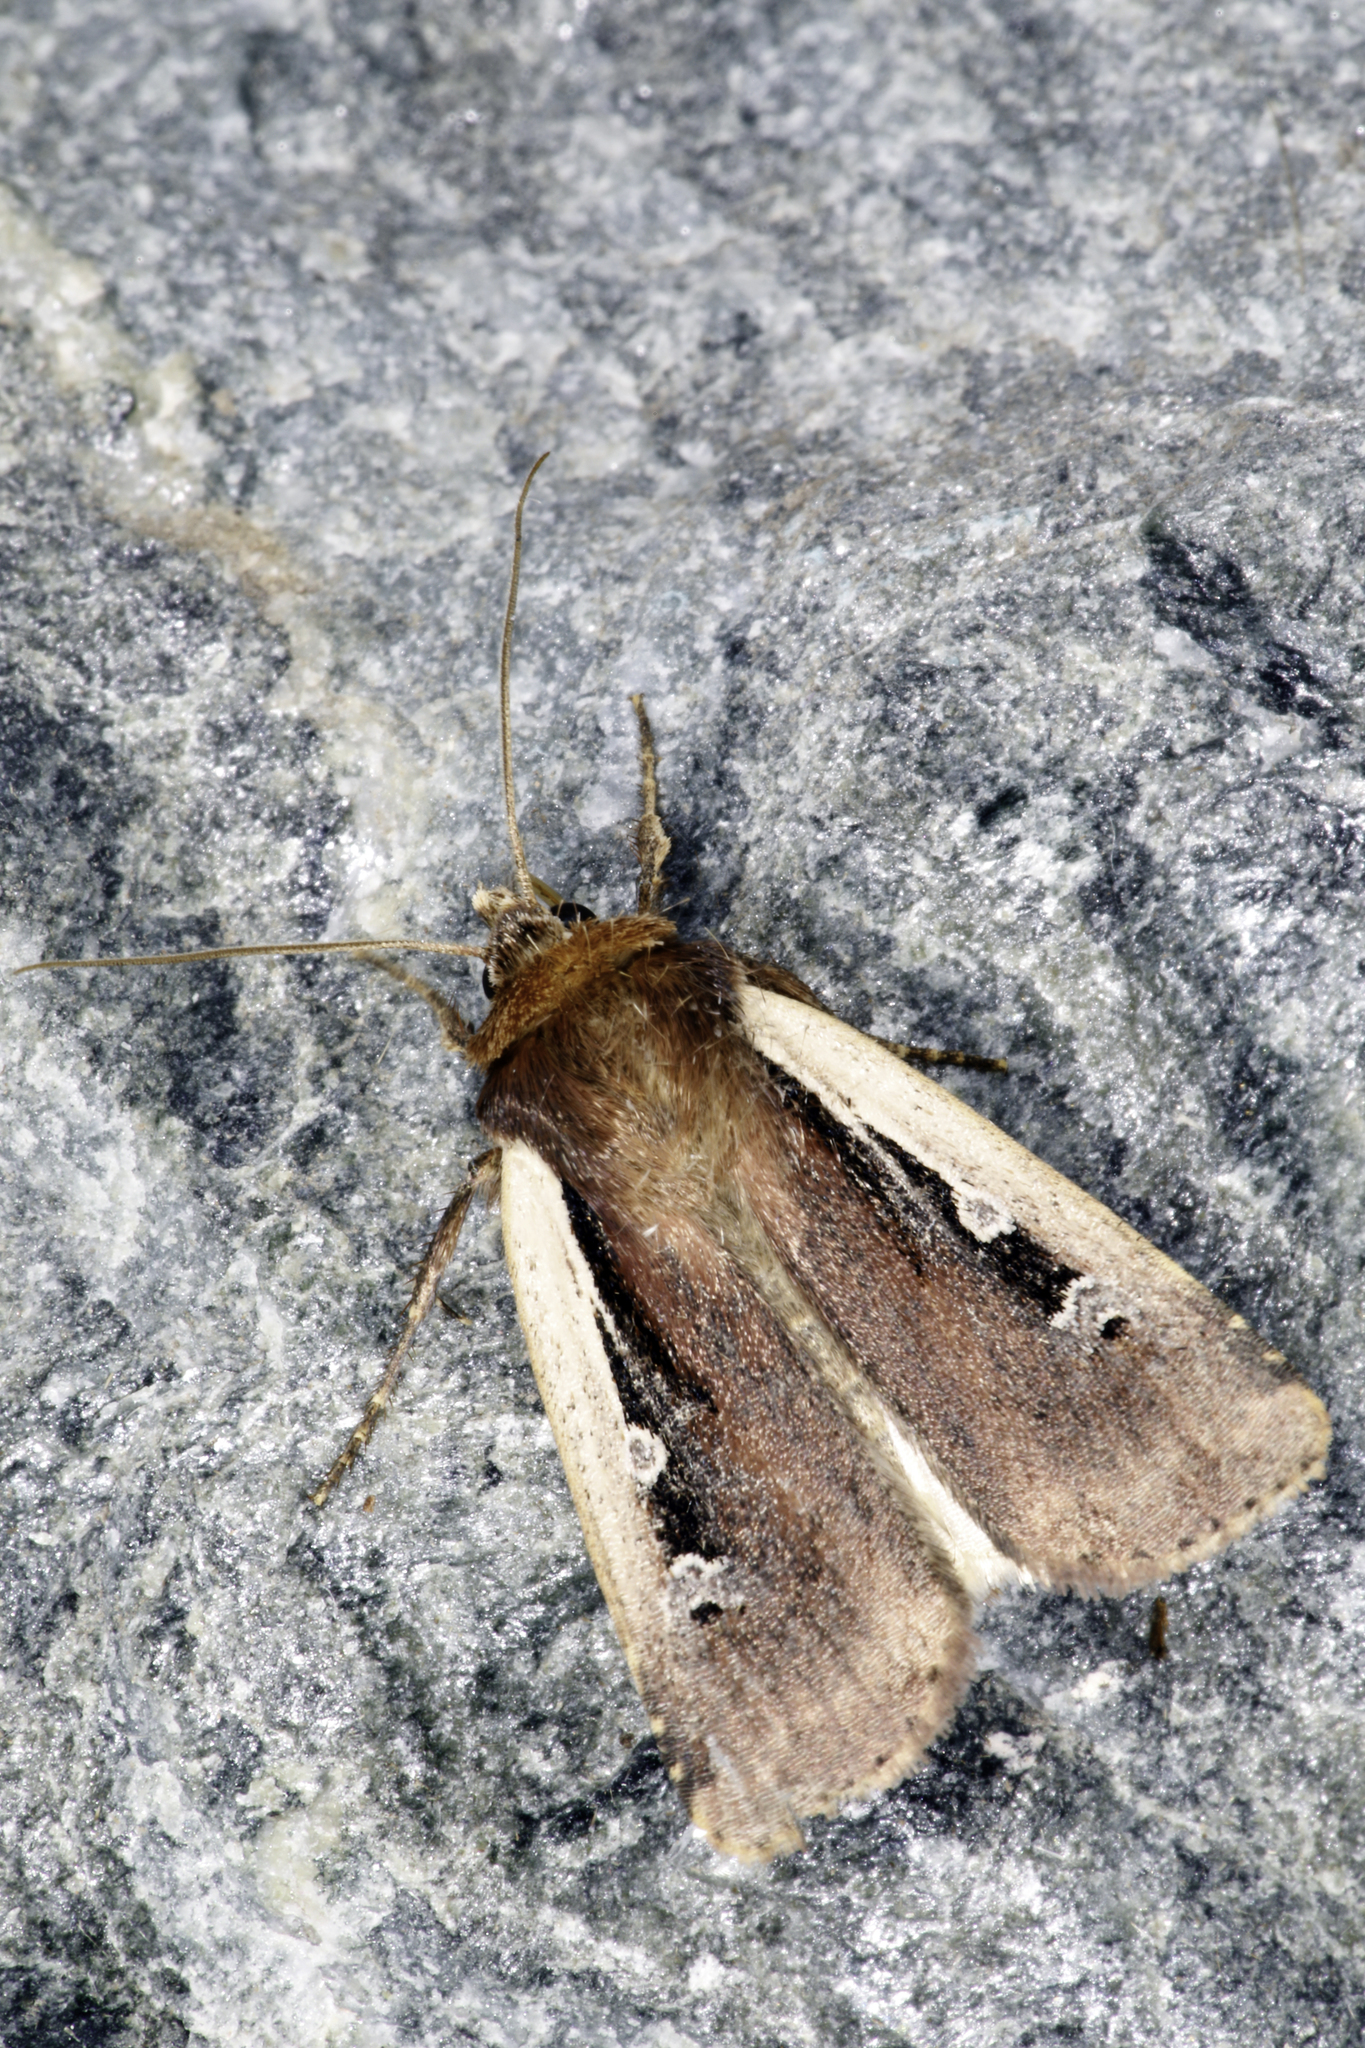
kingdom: Animalia
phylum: Arthropoda
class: Insecta
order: Lepidoptera
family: Noctuidae
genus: Ochropleura
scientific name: Ochropleura plecta
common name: Flame shoulder
